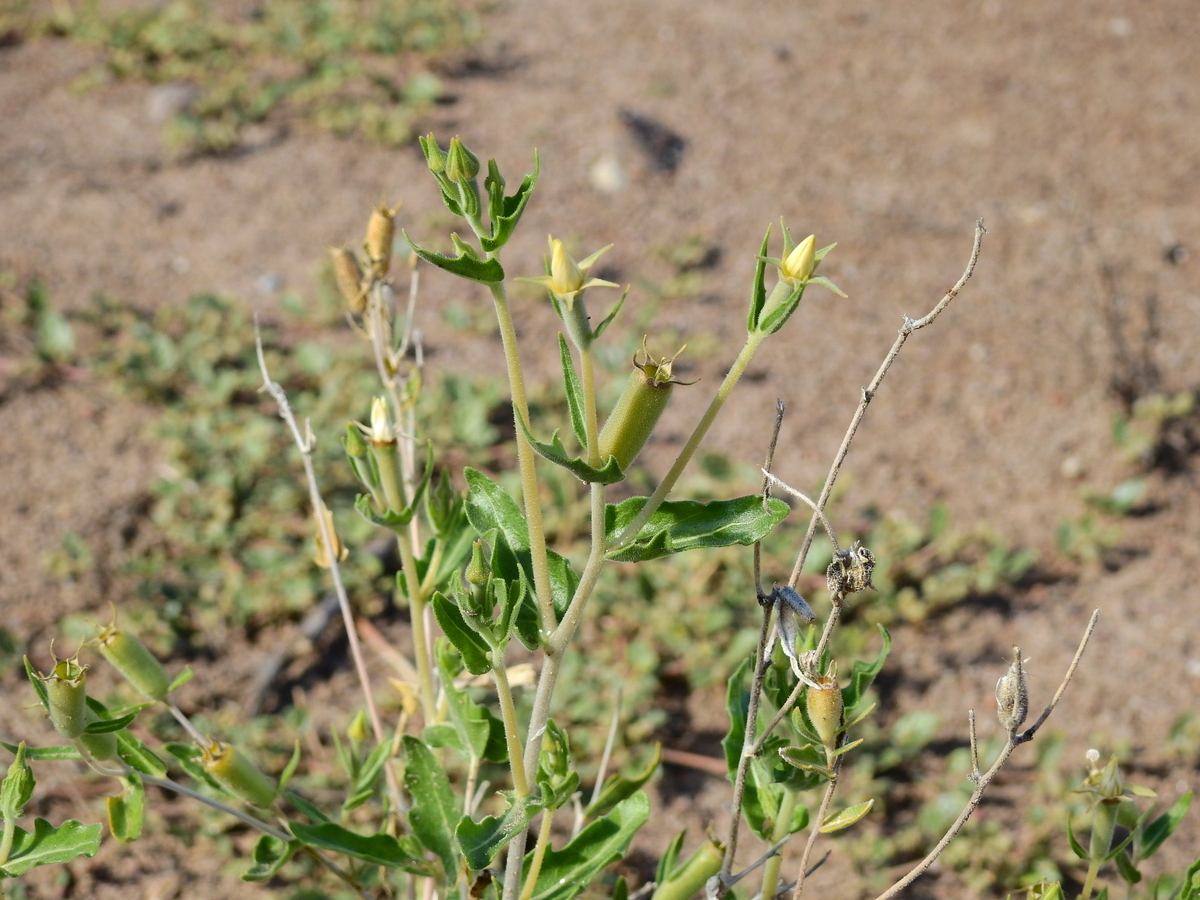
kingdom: Plantae
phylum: Tracheophyta
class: Magnoliopsida
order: Cornales
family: Loasaceae
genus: Mentzelia
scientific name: Mentzelia albescens
